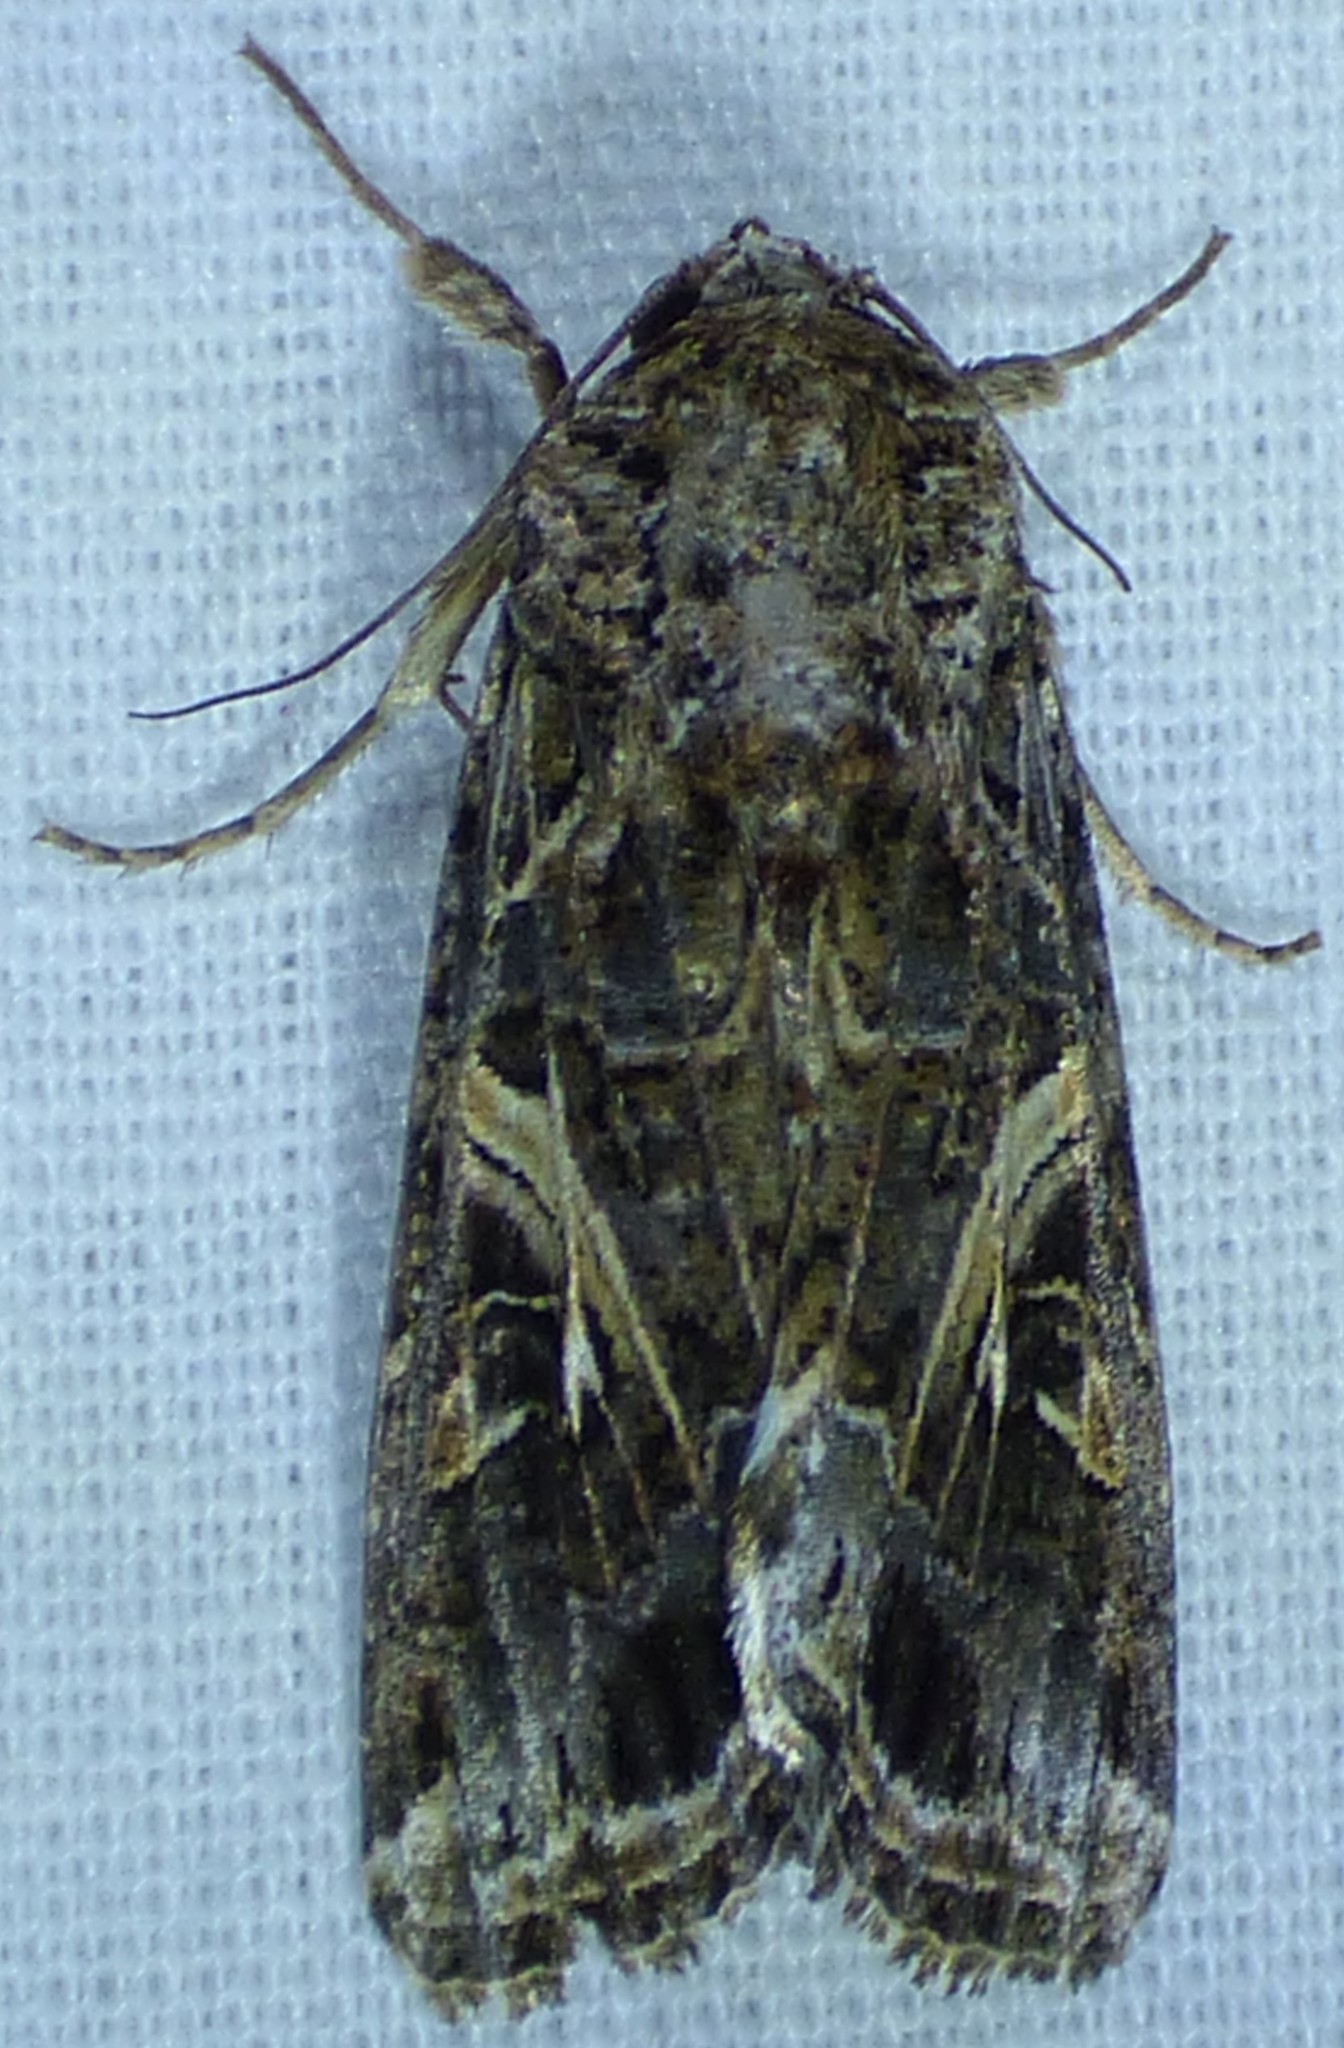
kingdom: Animalia
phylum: Arthropoda
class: Insecta
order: Lepidoptera
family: Noctuidae
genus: Spodoptera
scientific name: Spodoptera ornithogalli
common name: Yellow-striped armyworm
